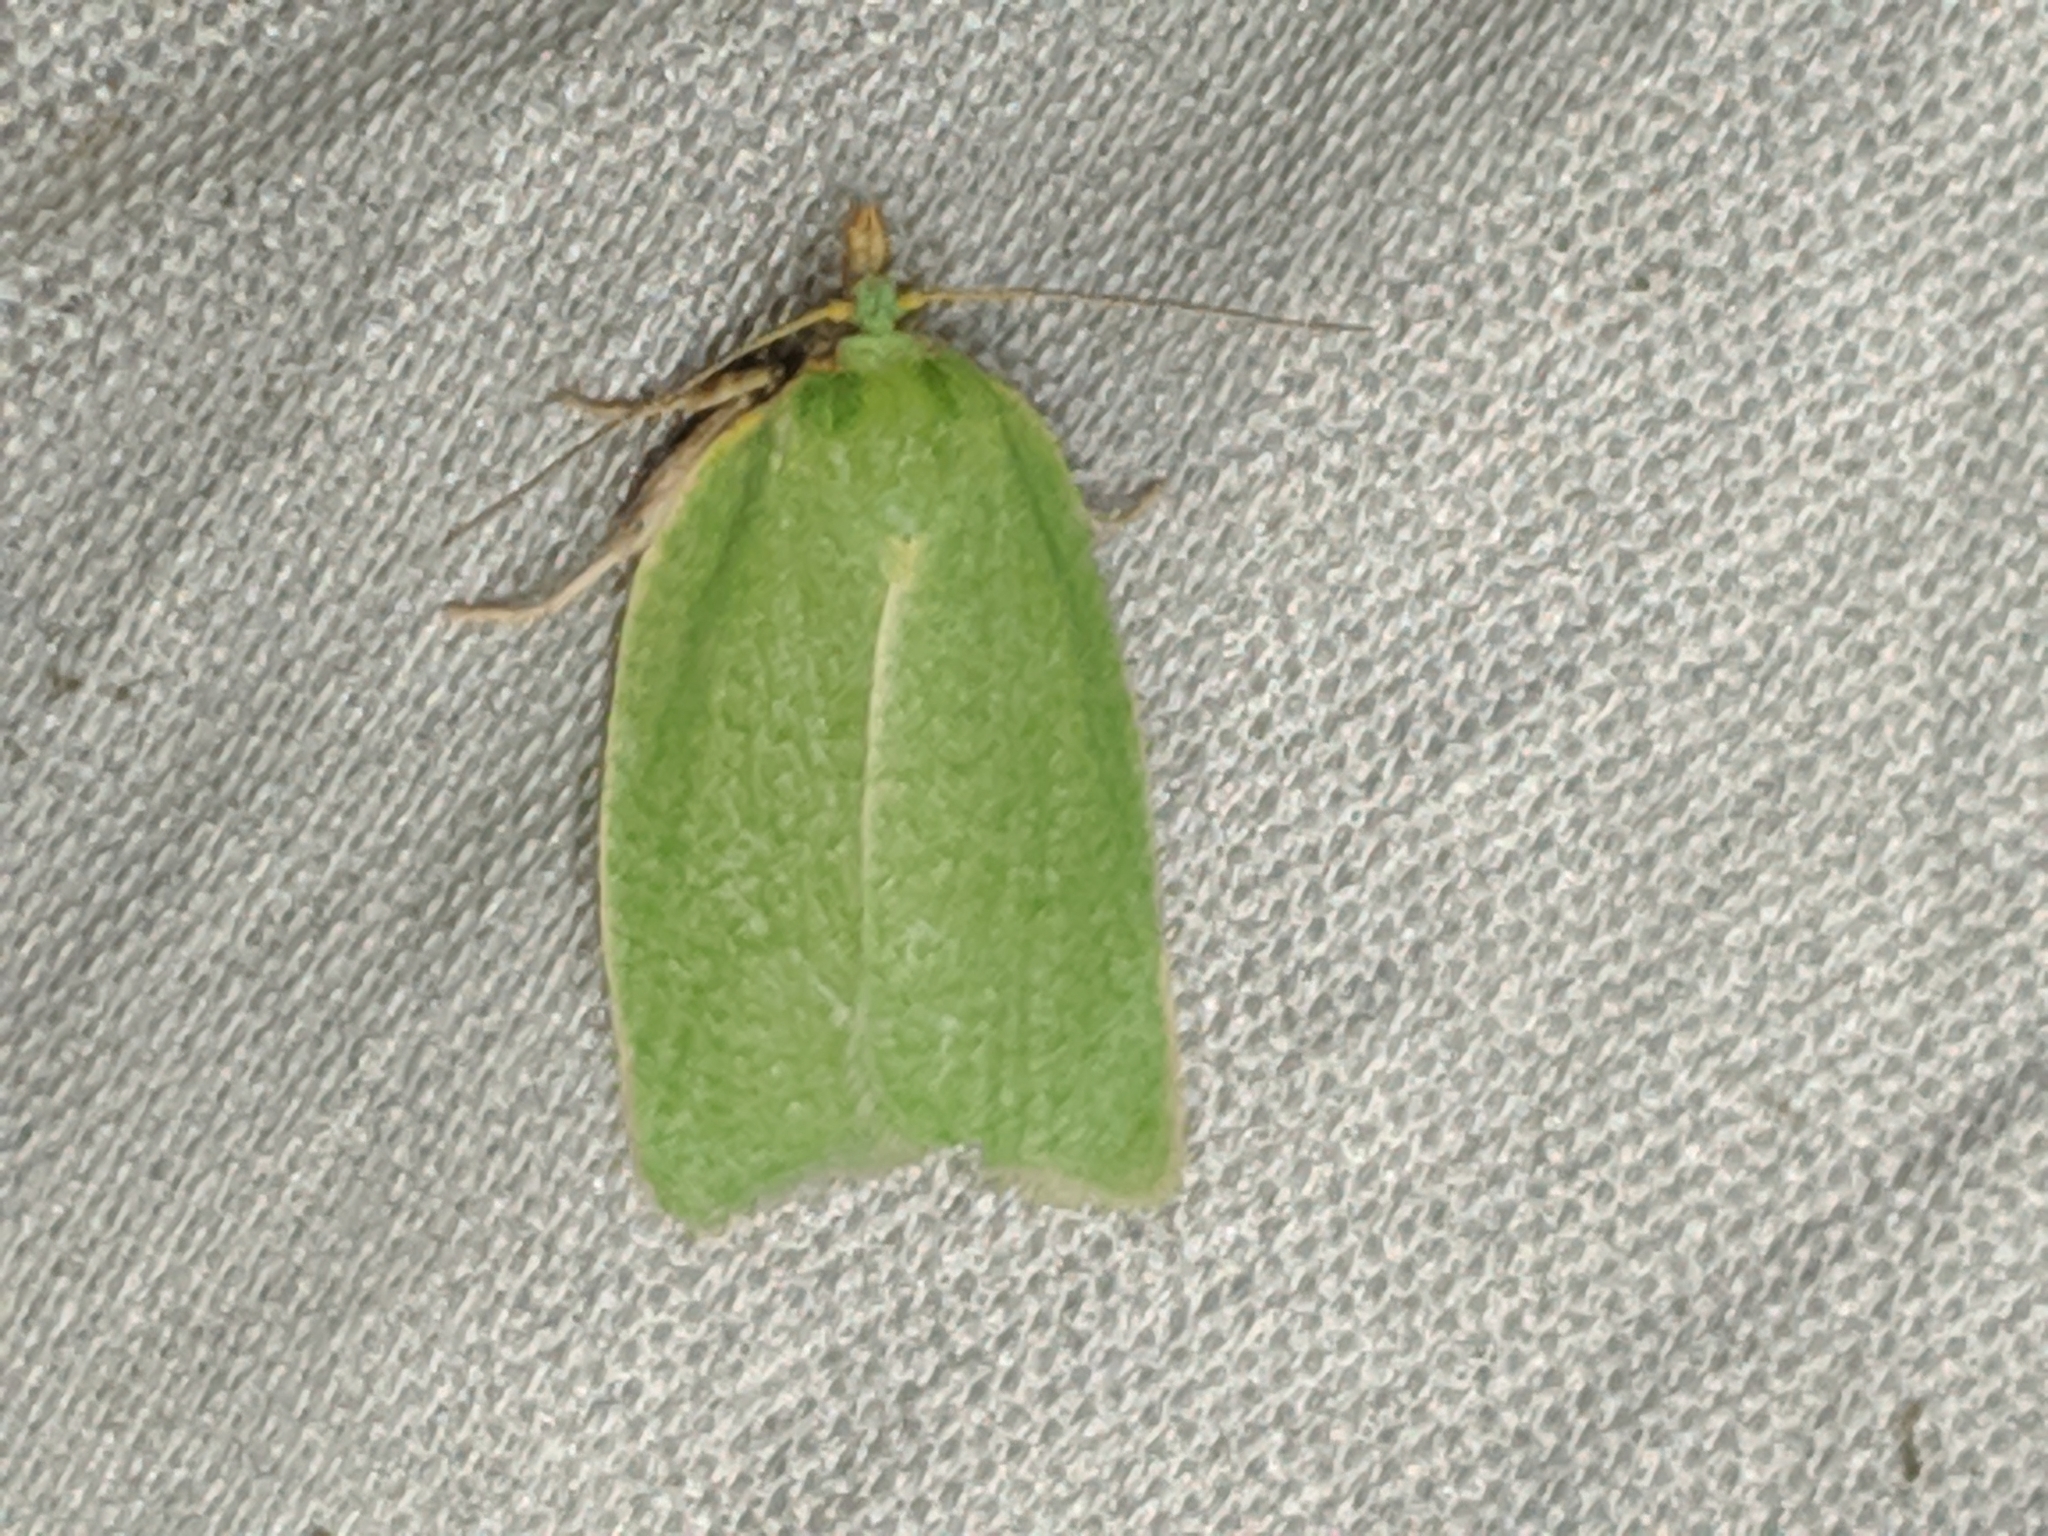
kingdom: Animalia
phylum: Arthropoda
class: Insecta
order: Lepidoptera
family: Tortricidae
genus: Tortrix
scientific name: Tortrix viridana
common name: Green oak tortrix
